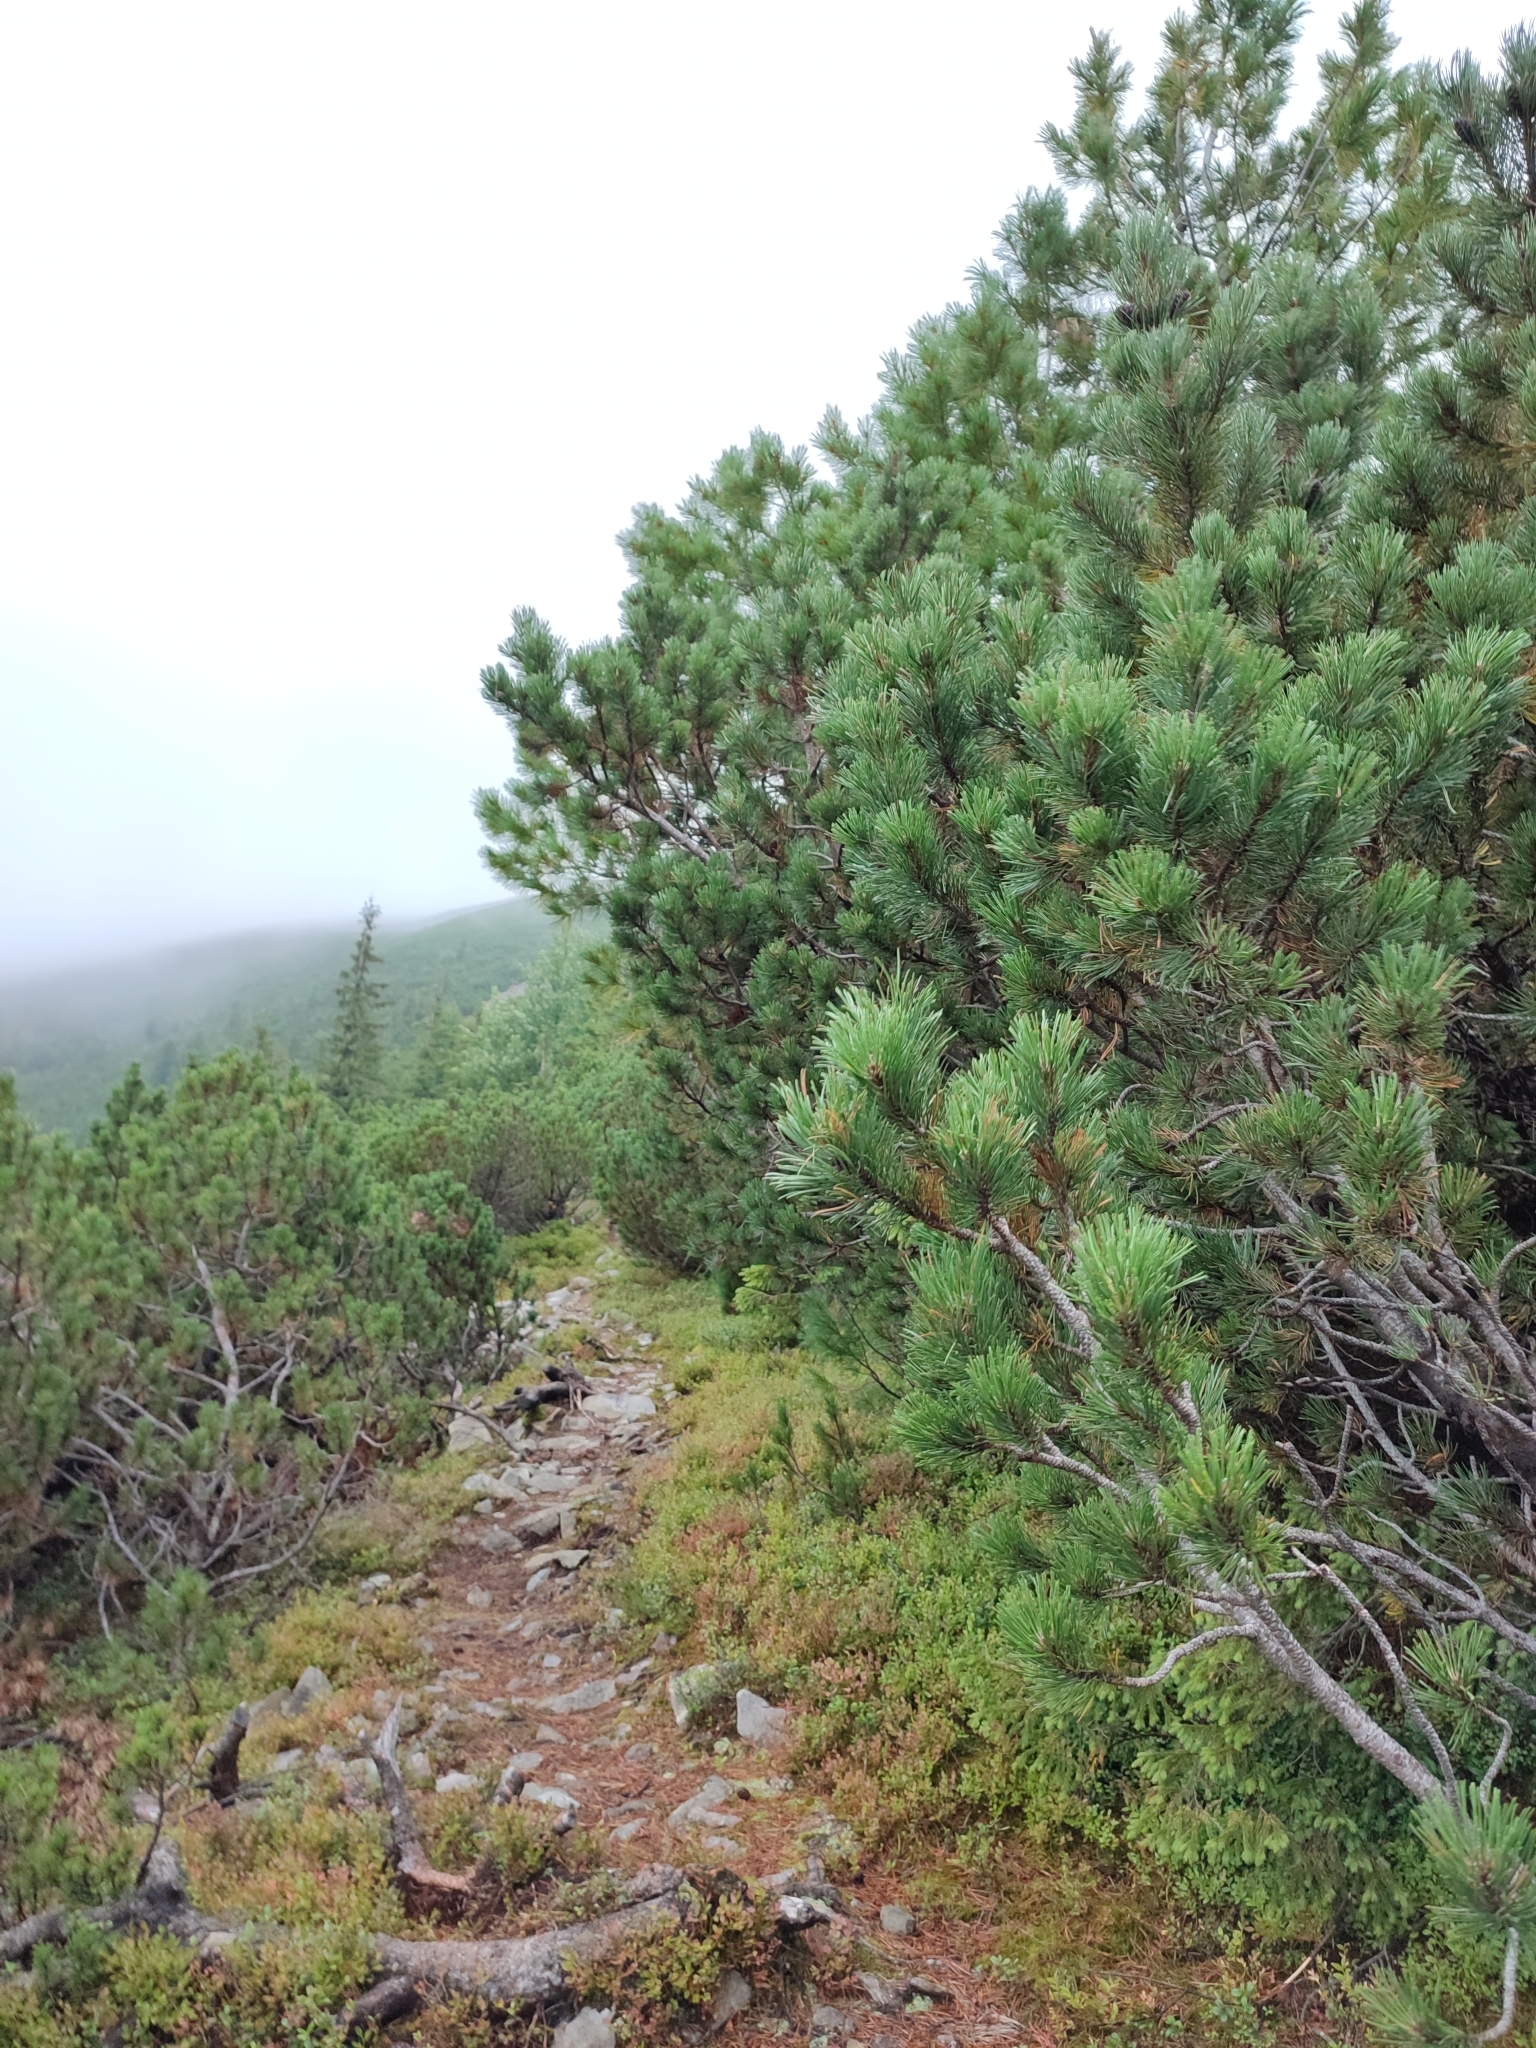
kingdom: Plantae
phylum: Tracheophyta
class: Pinopsida
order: Pinales
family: Pinaceae
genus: Pinus
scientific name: Pinus mugo
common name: Mugo pine
